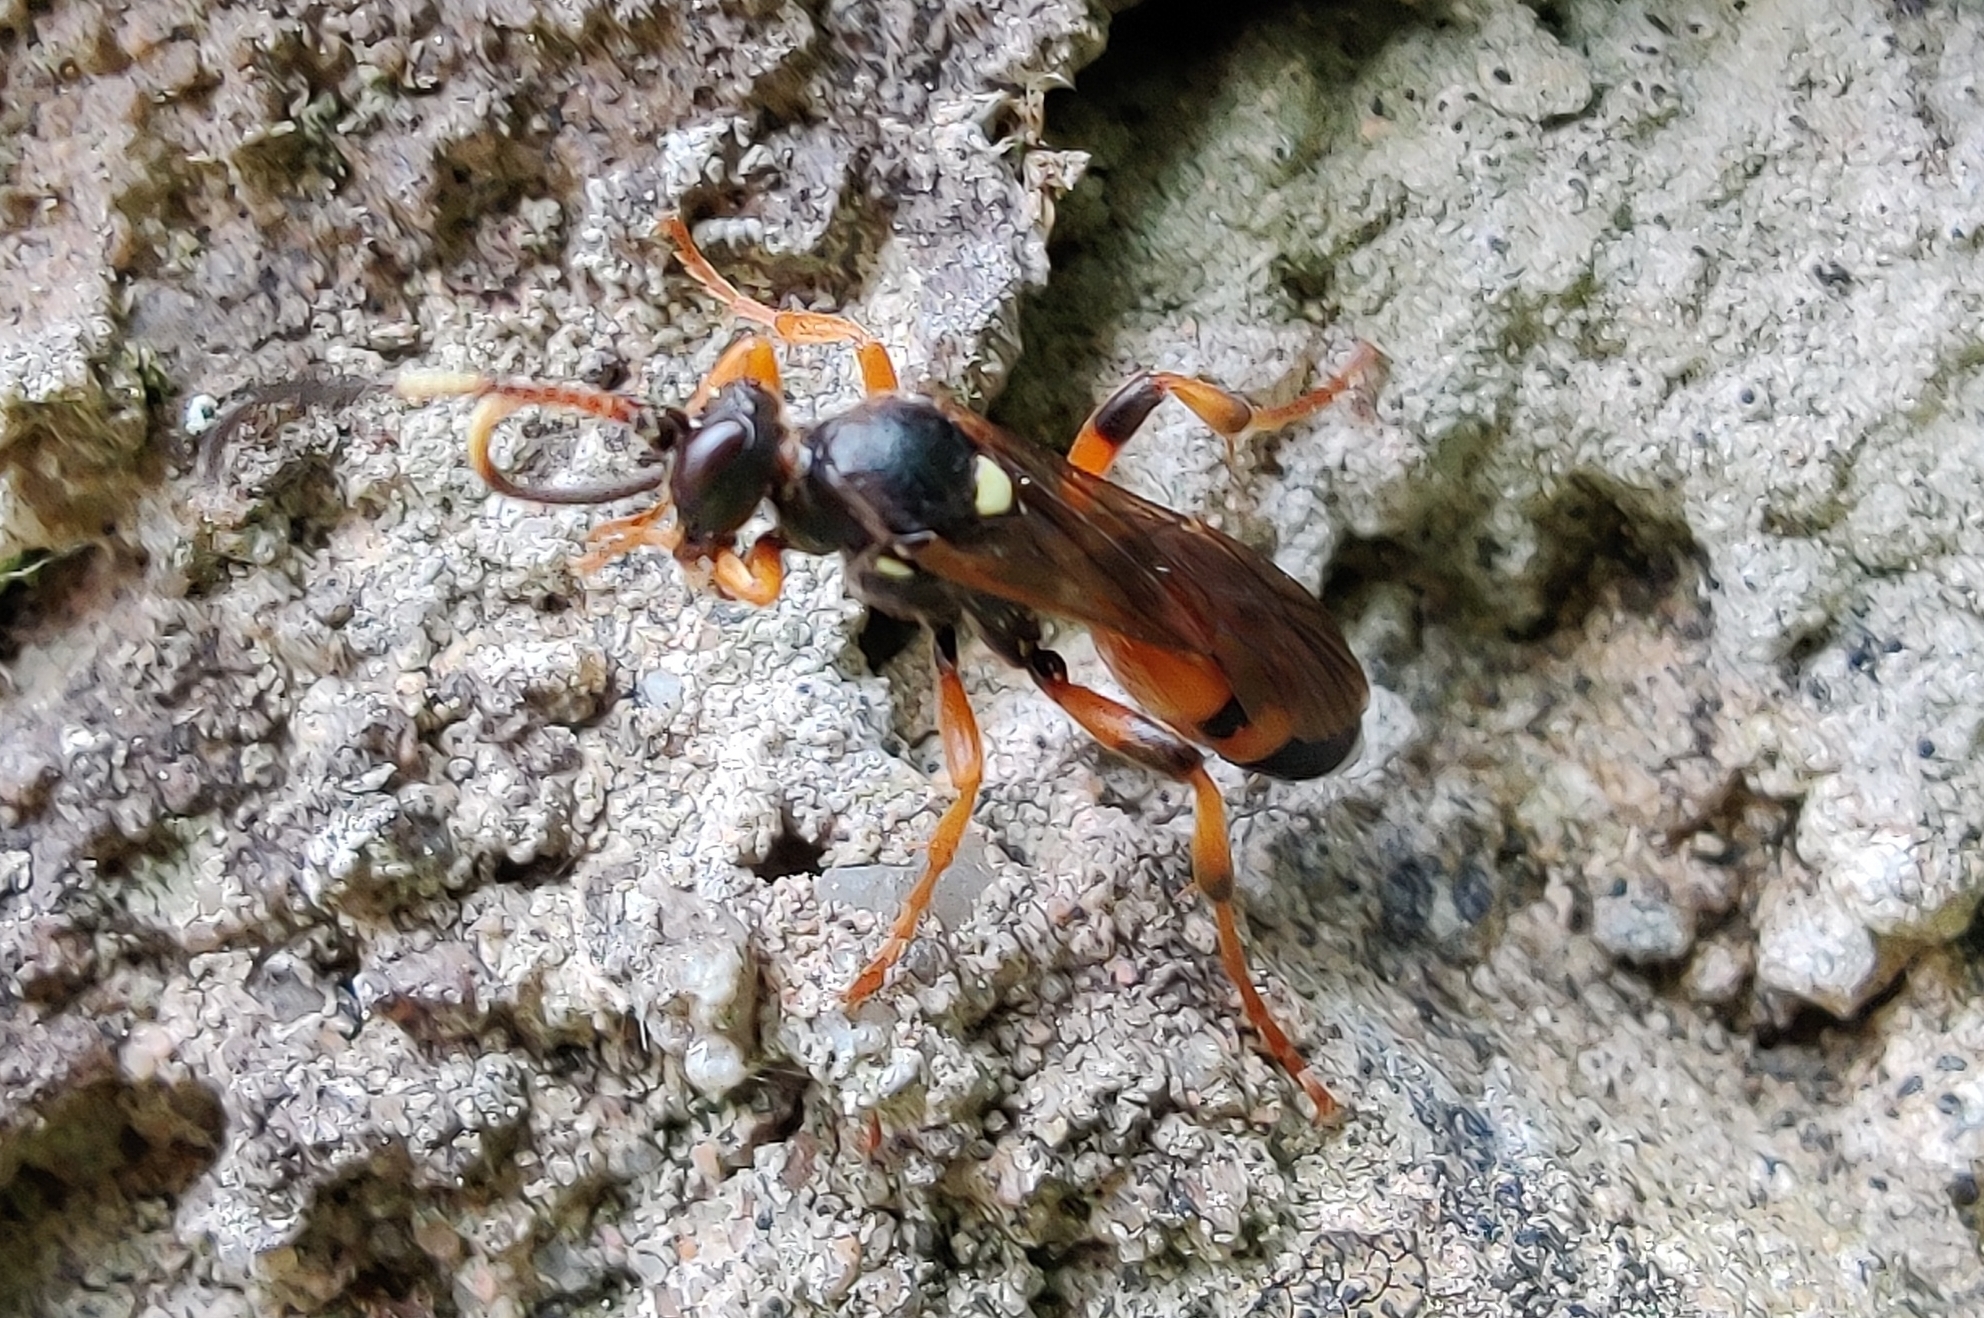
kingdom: Animalia
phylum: Arthropoda
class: Insecta
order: Hymenoptera
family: Ichneumonidae
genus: Ichneumon
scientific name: Ichneumon sarcitorius
